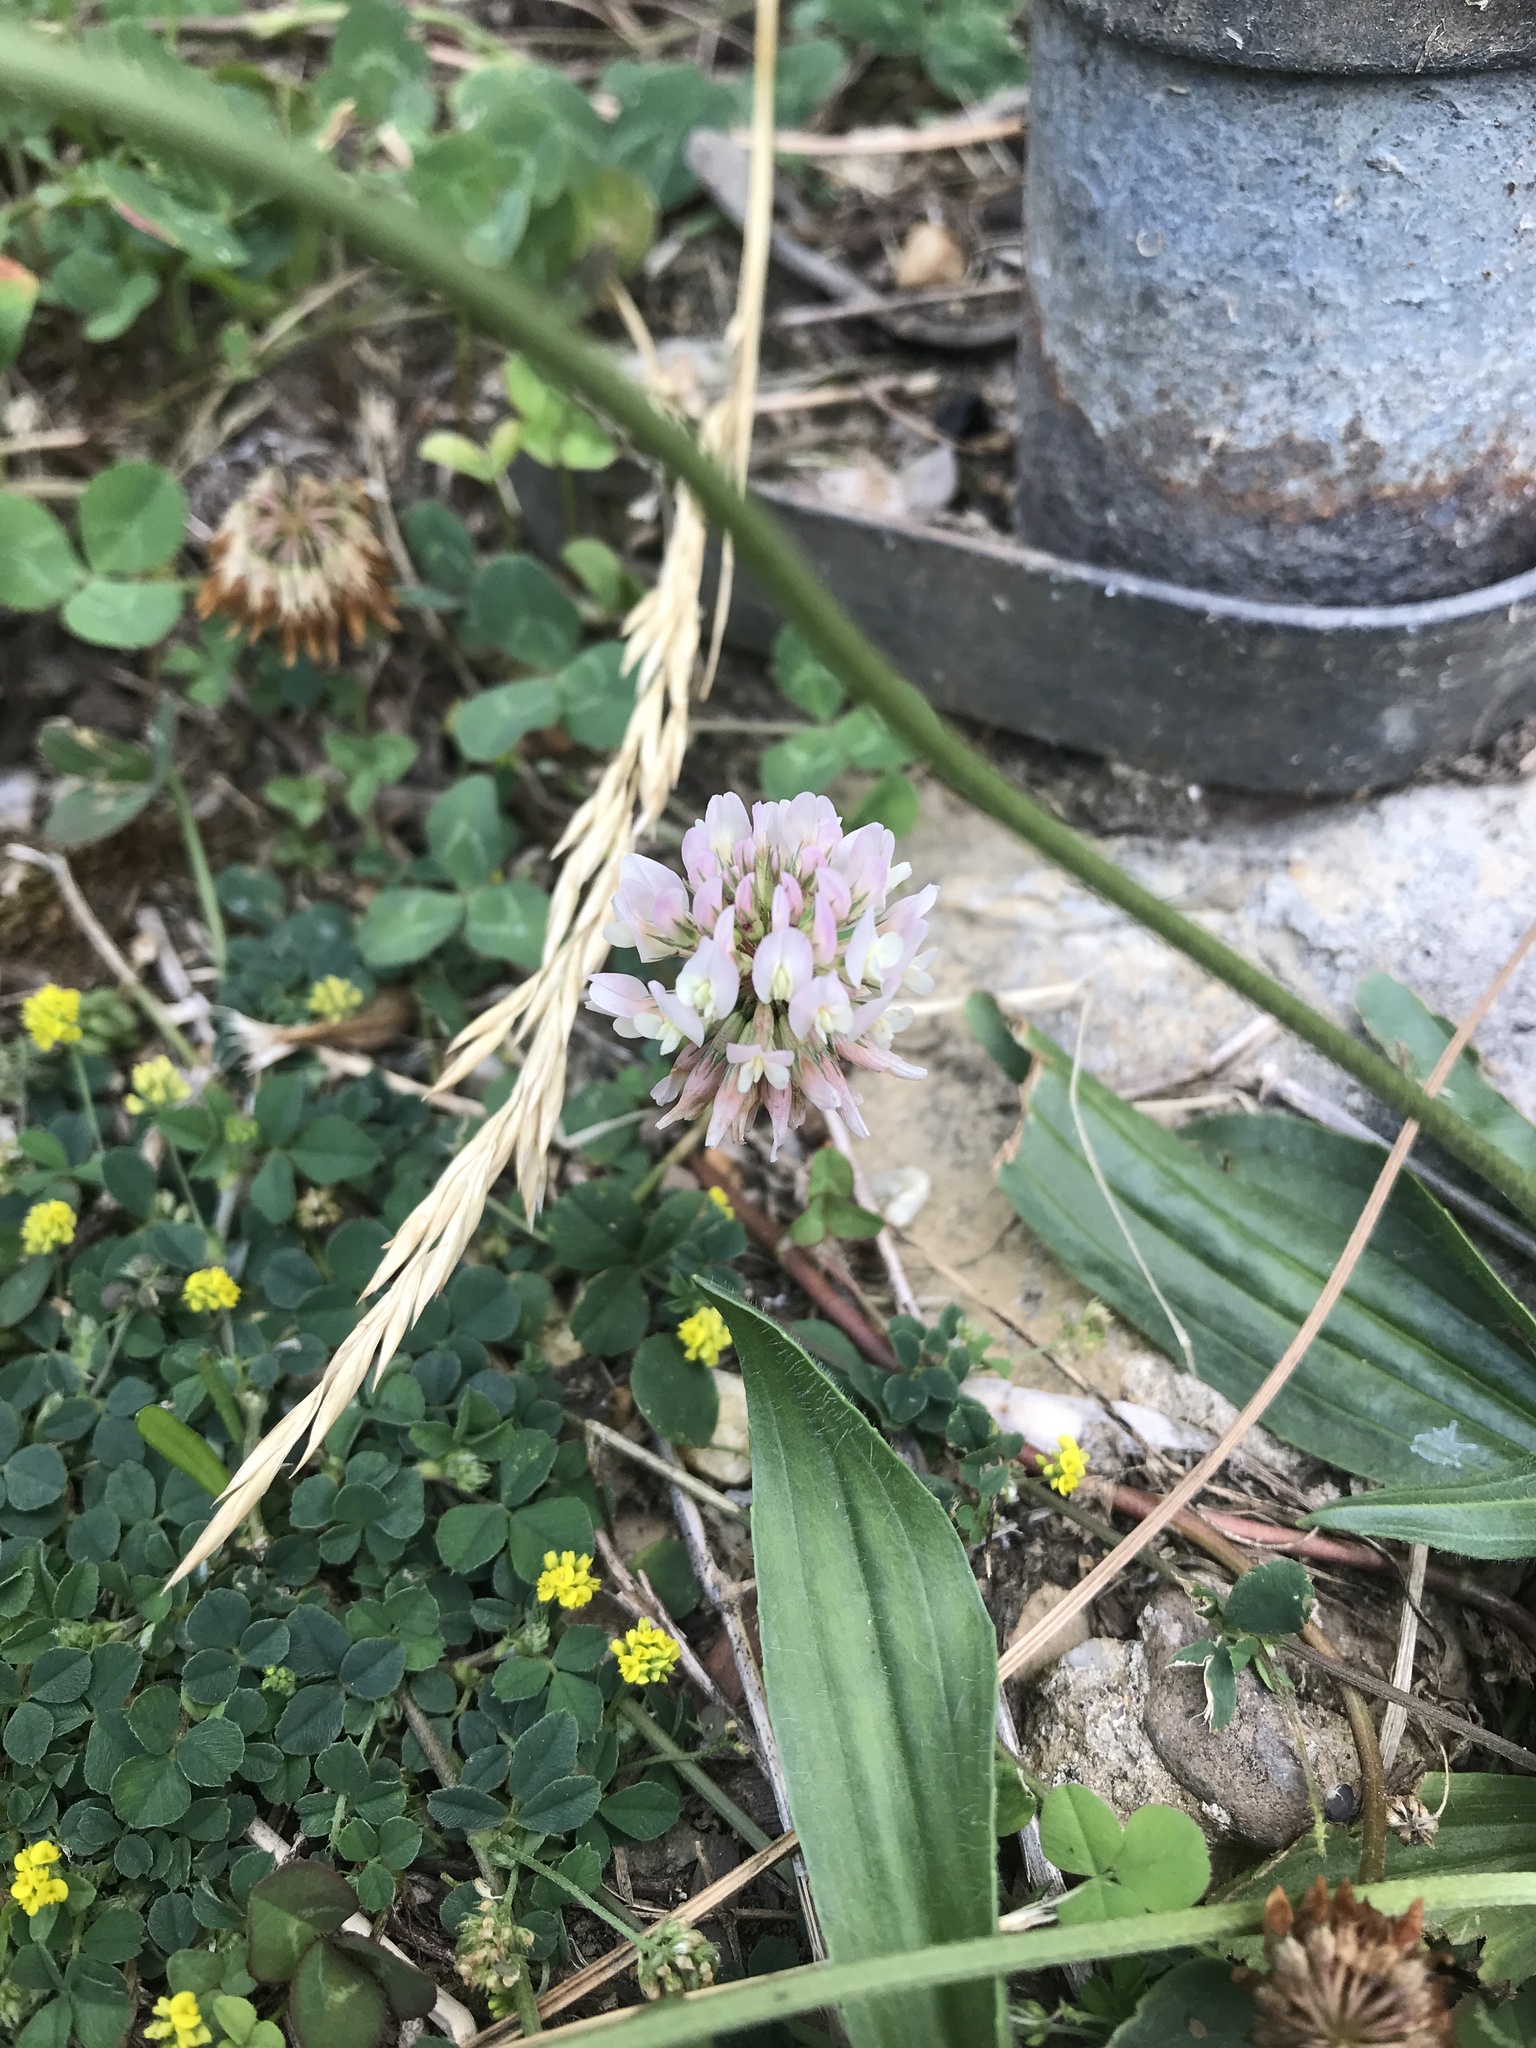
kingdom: Plantae
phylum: Tracheophyta
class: Magnoliopsida
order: Fabales
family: Fabaceae
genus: Trifolium
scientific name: Trifolium repens
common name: White clover
